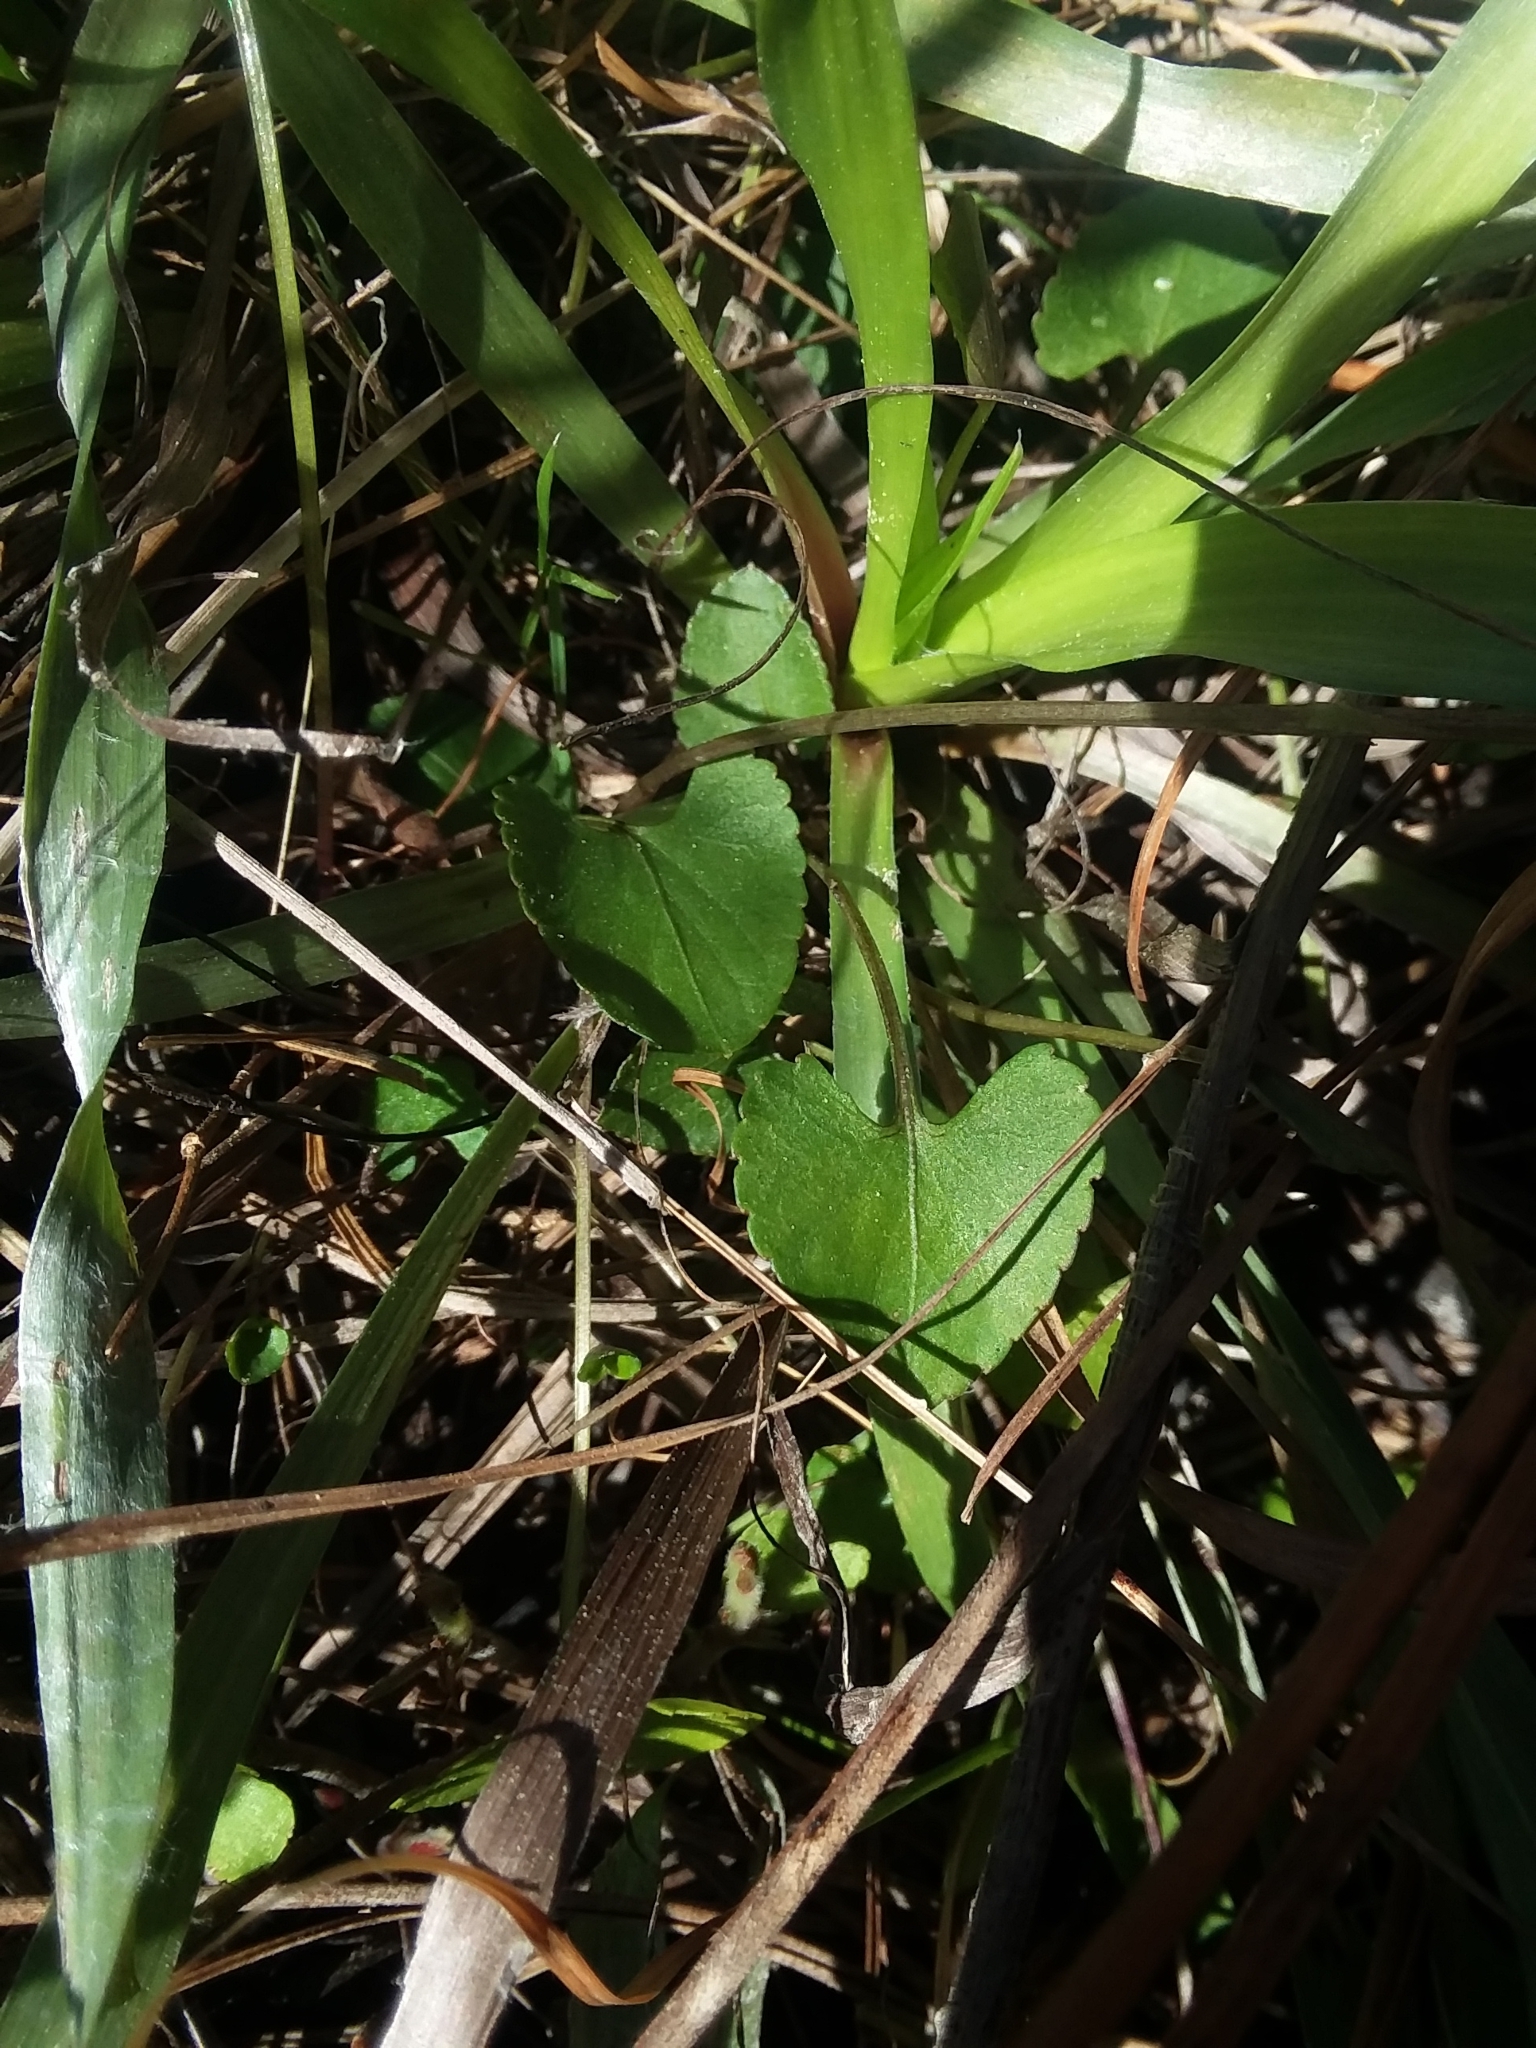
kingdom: Plantae
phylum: Tracheophyta
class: Magnoliopsida
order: Malpighiales
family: Violaceae
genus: Viola
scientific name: Viola septemloba
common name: Southern coast violet
